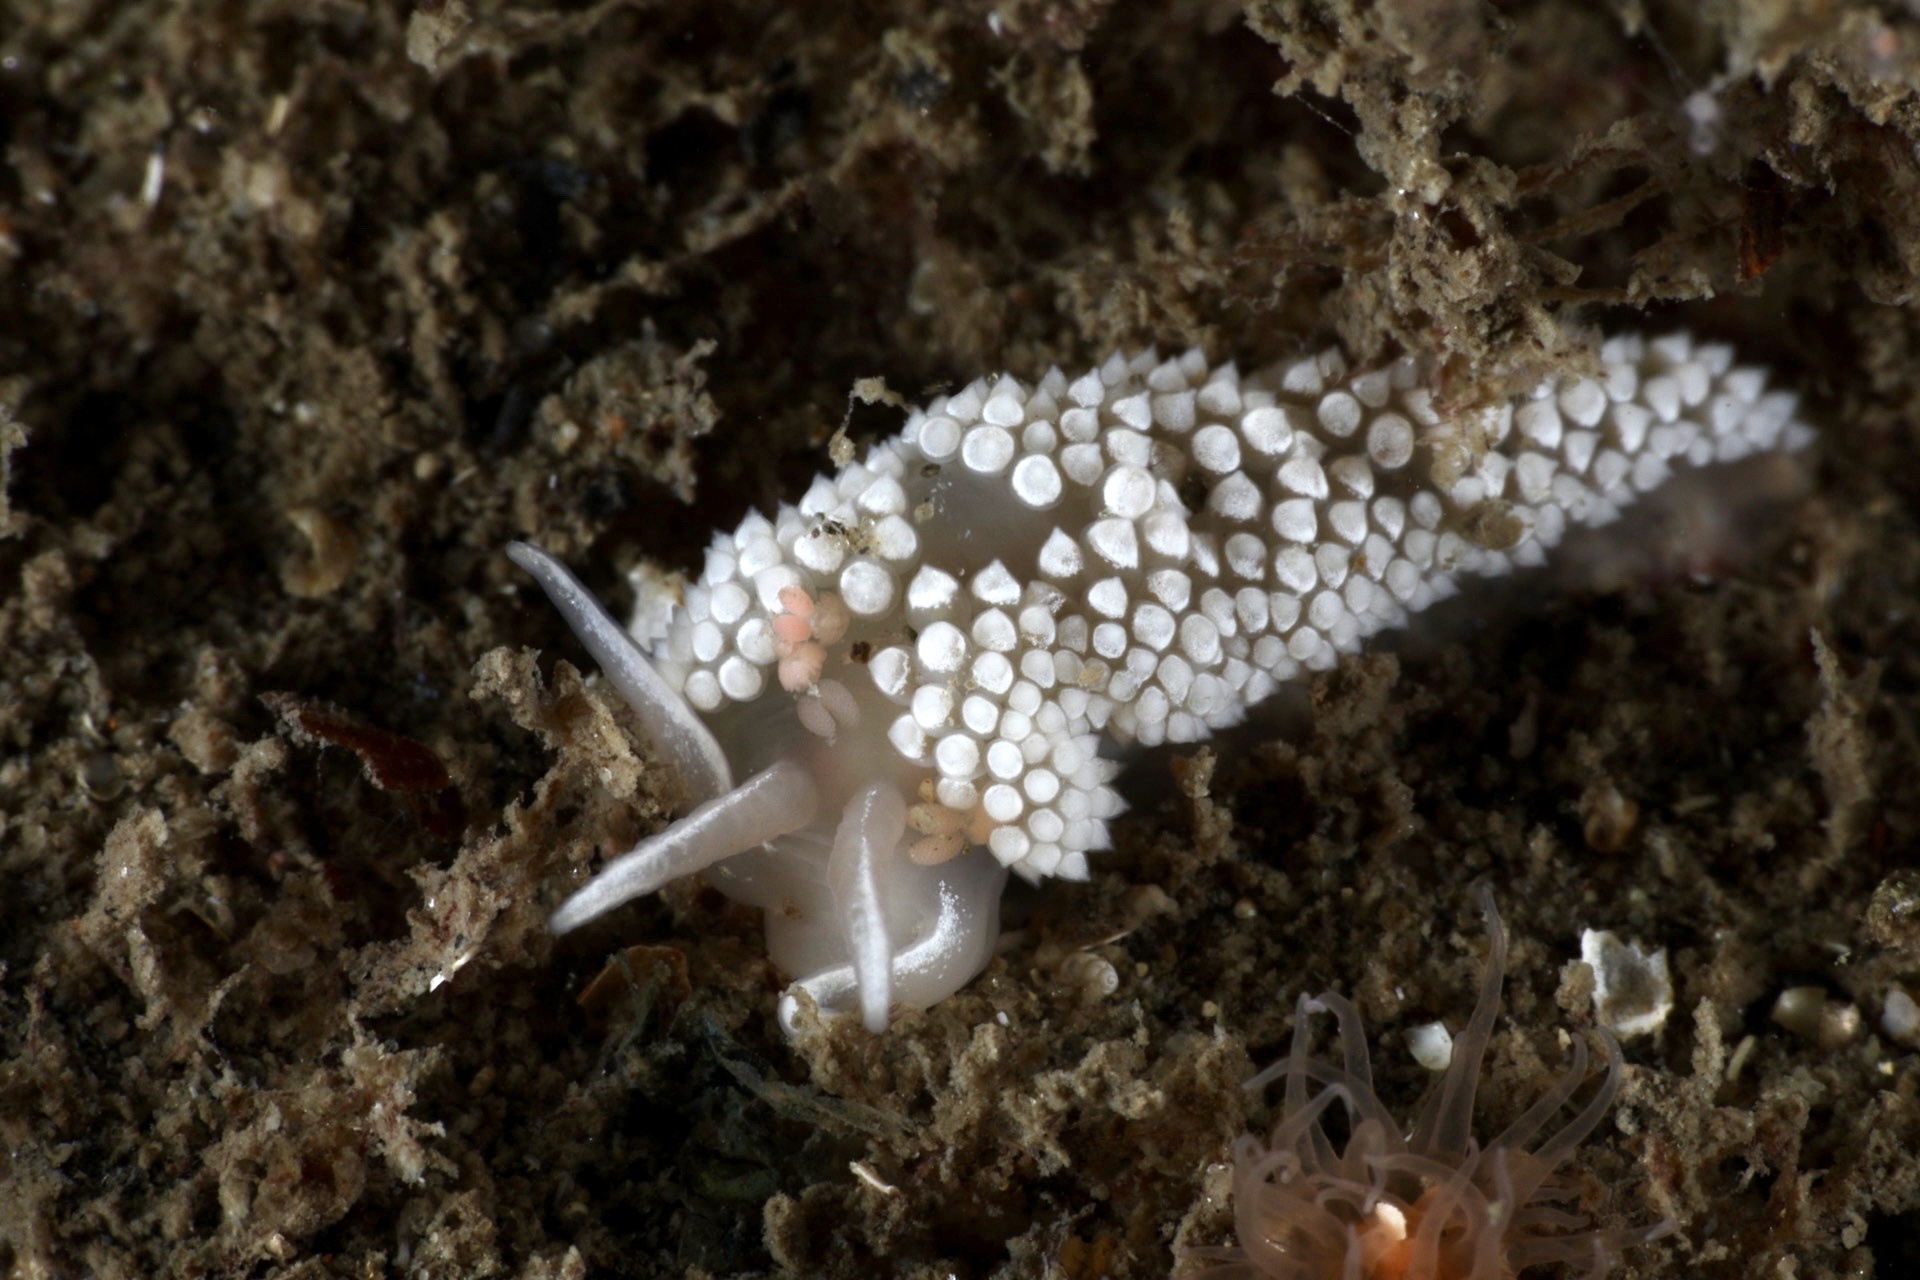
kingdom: Animalia
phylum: Mollusca
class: Gastropoda
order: Nudibranchia
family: Coryphellidae
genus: Coryphella
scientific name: Coryphella verrucosa
